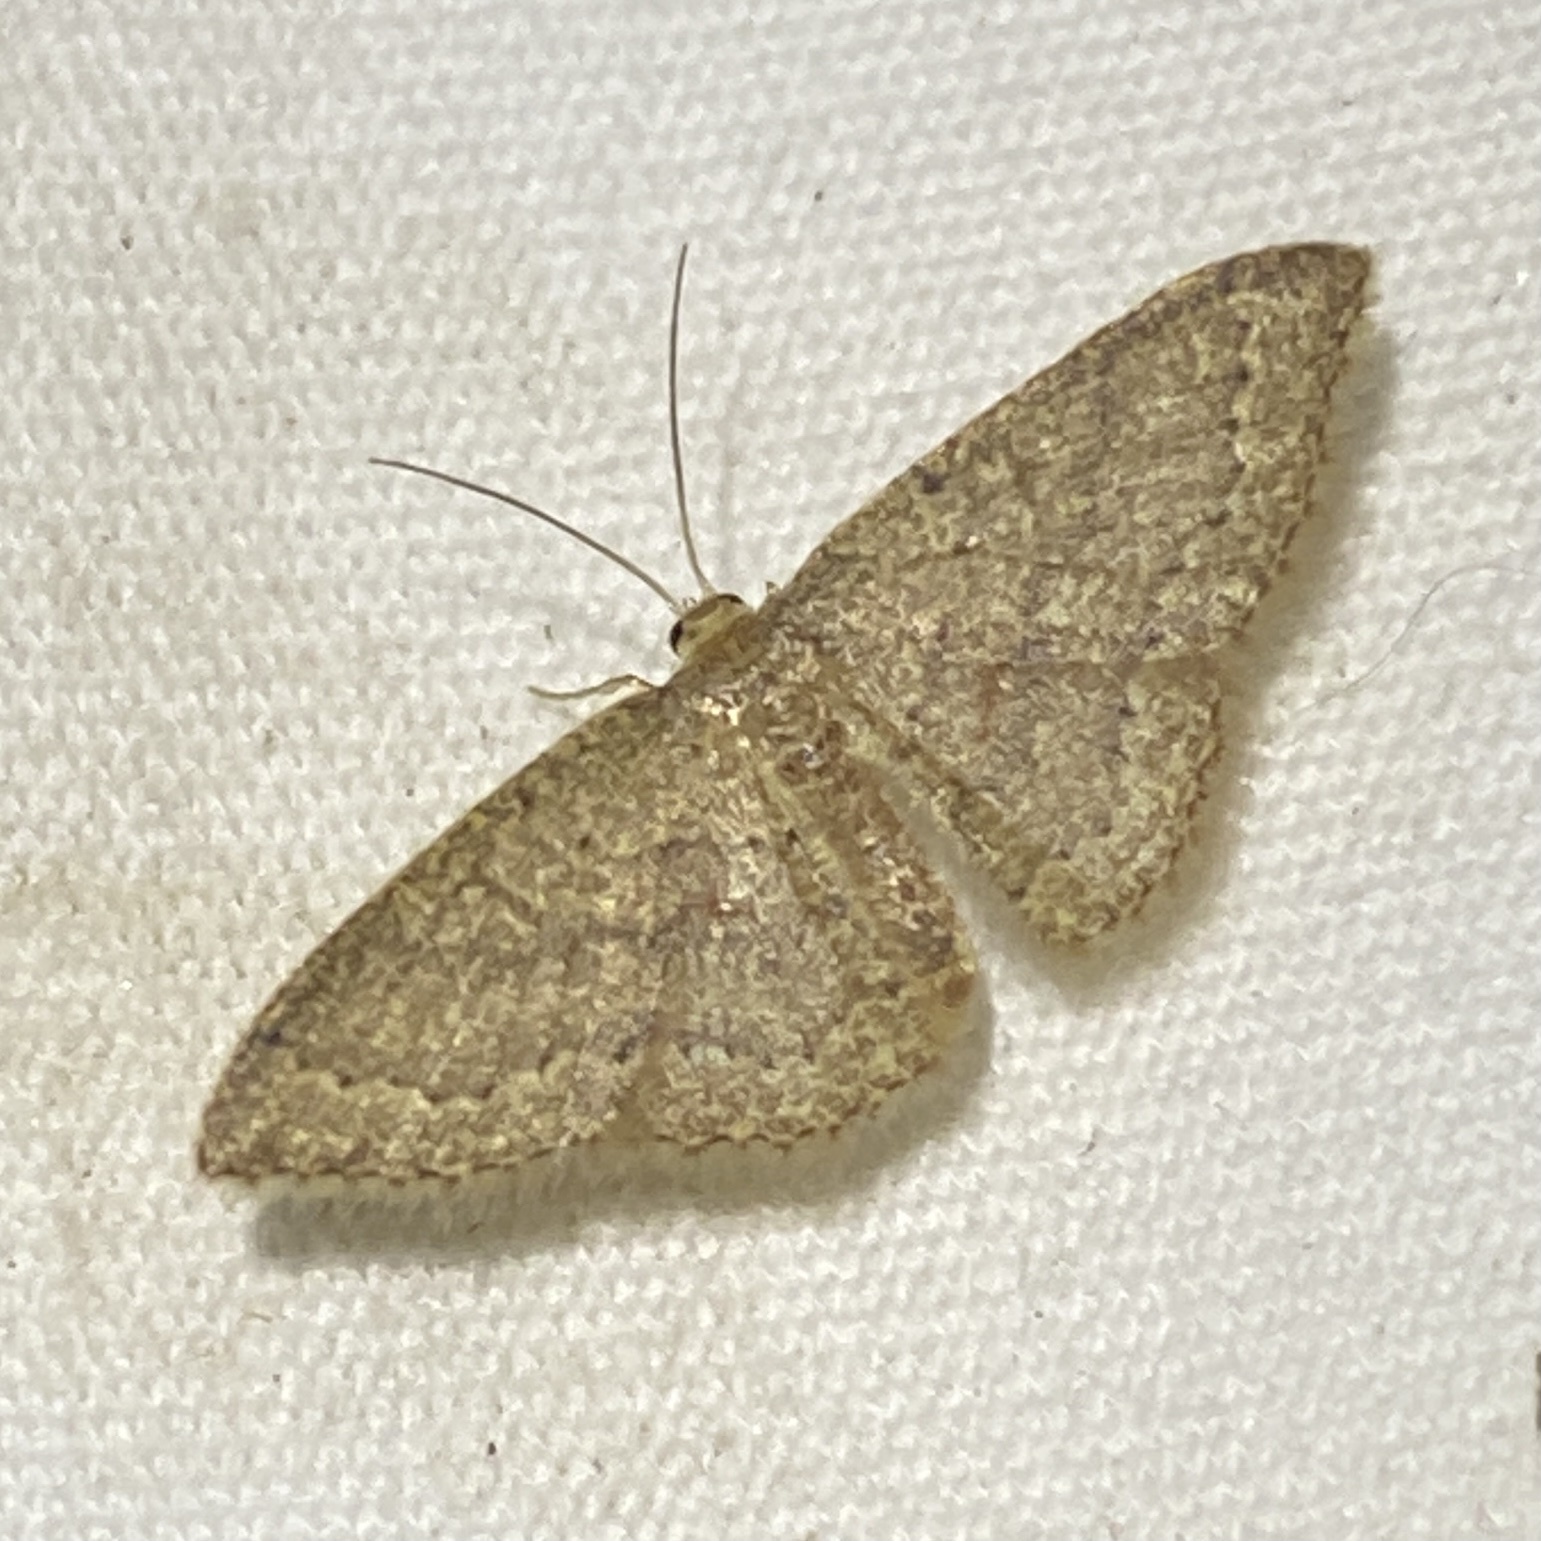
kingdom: Animalia
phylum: Arthropoda
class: Insecta
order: Lepidoptera
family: Geometridae
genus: Pleuroprucha
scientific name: Pleuroprucha insulsaria
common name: Common tan wave
